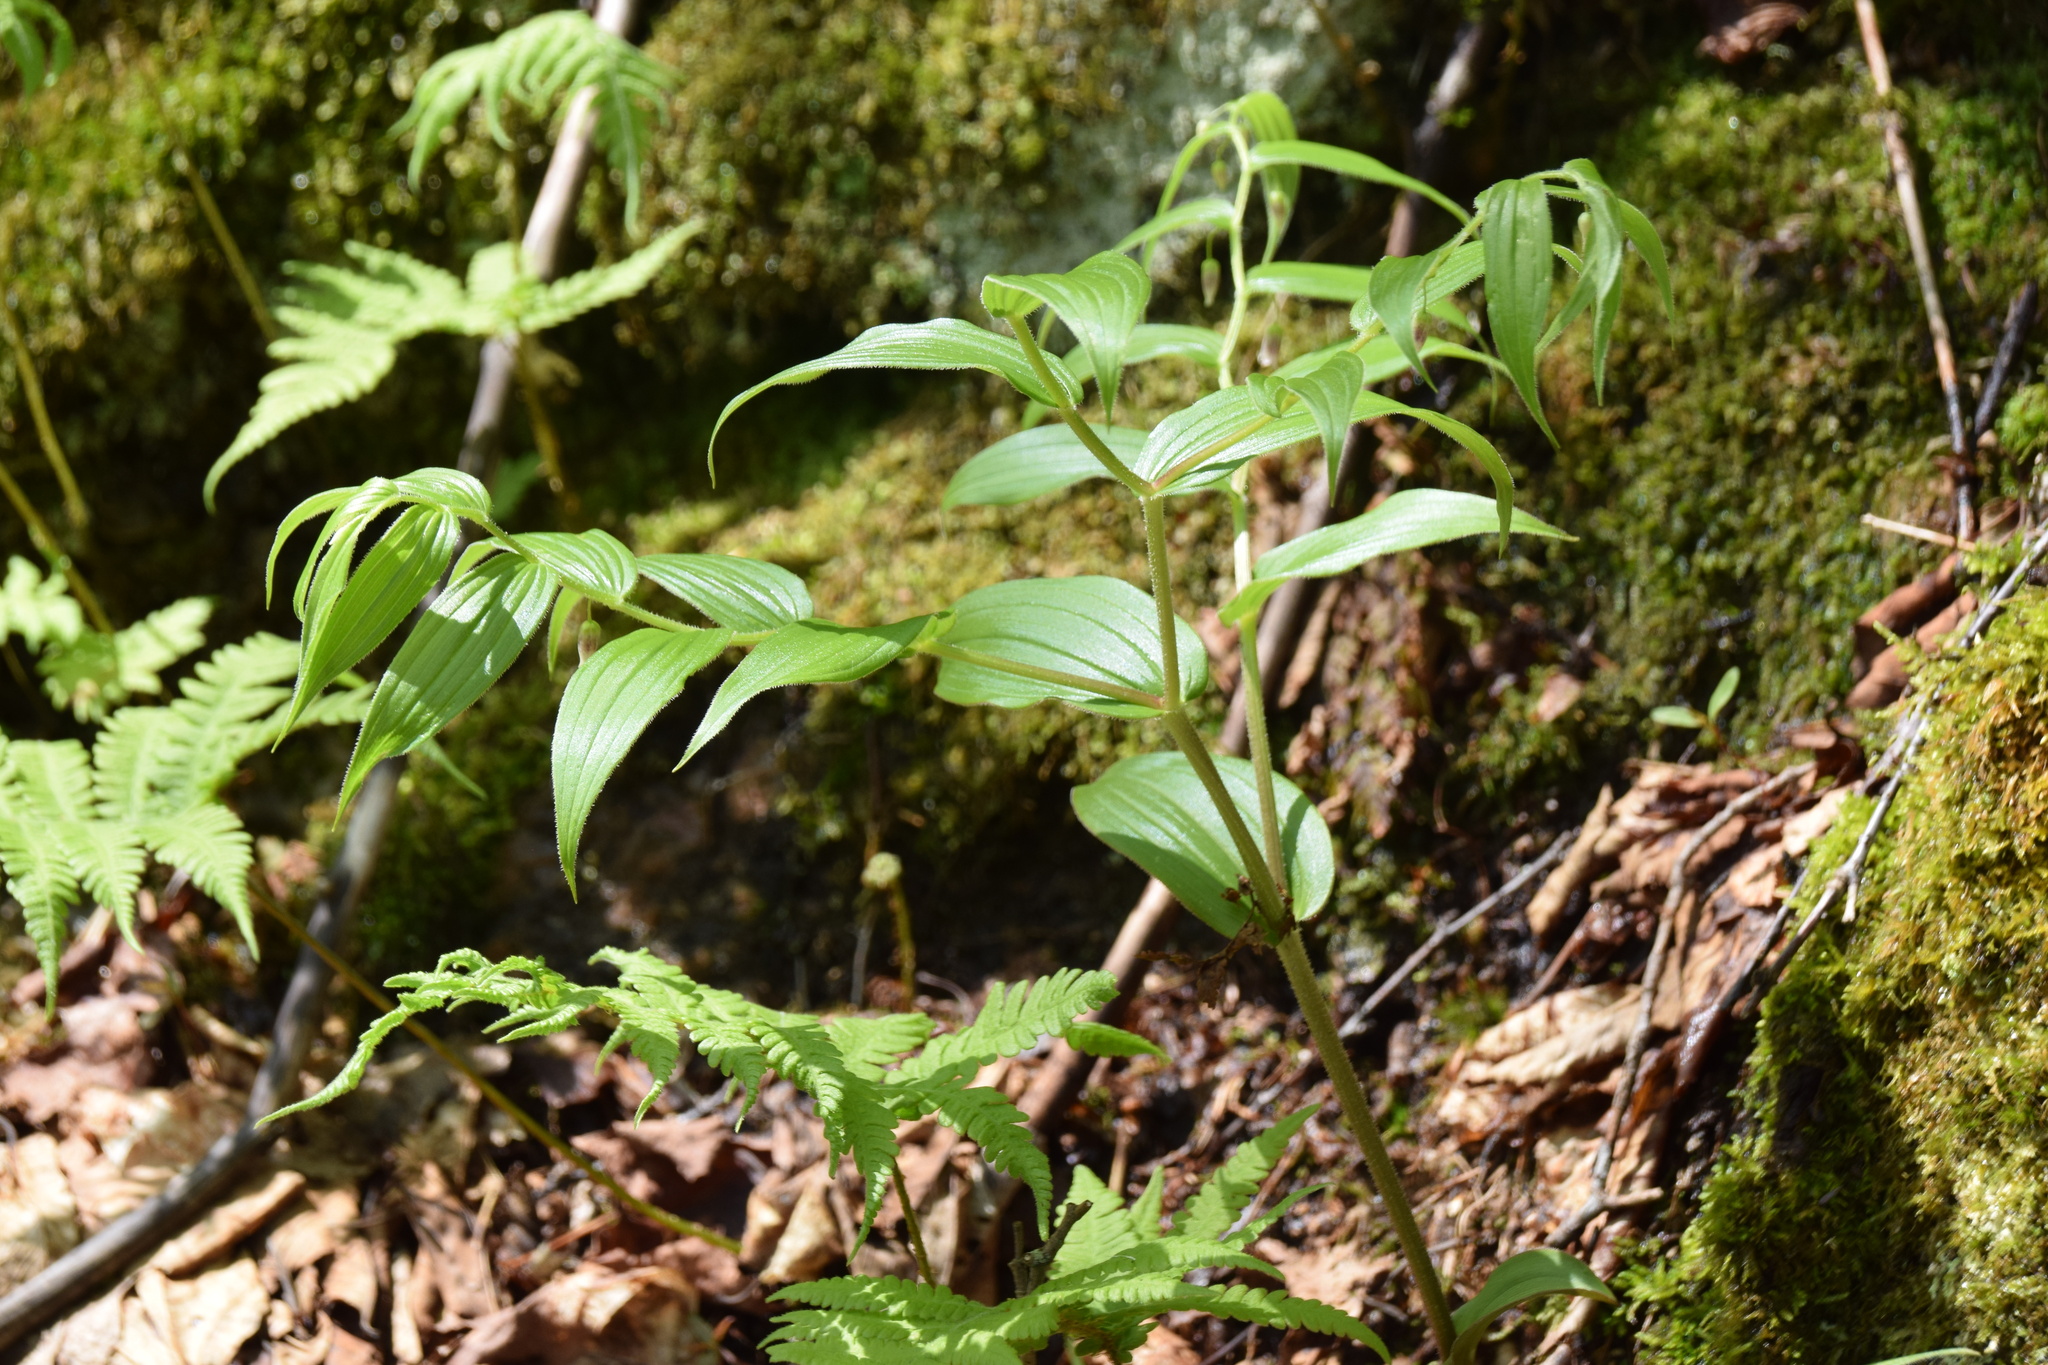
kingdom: Plantae
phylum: Tracheophyta
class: Liliopsida
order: Liliales
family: Liliaceae
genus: Streptopus
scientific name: Streptopus lanceolatus
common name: Rose mandarin
